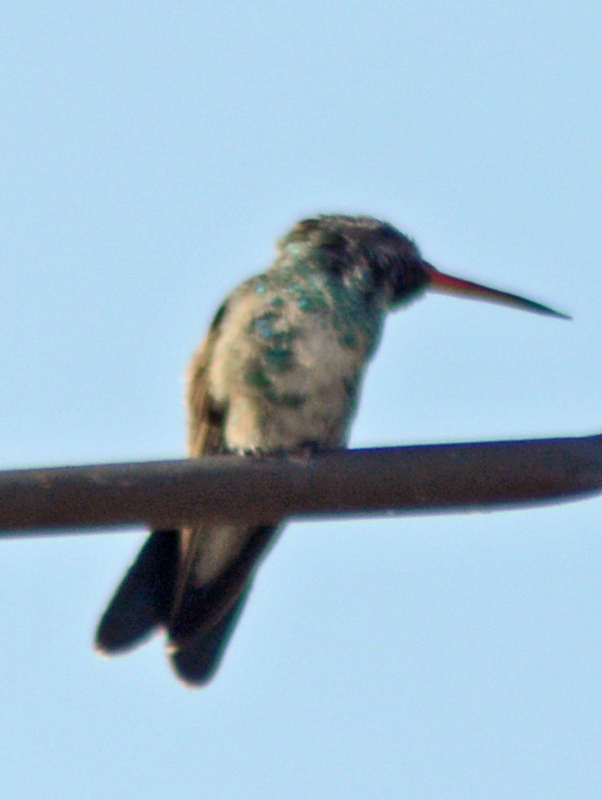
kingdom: Animalia
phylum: Chordata
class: Aves
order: Apodiformes
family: Trochilidae
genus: Cynanthus
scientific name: Cynanthus latirostris
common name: Broad-billed hummingbird
